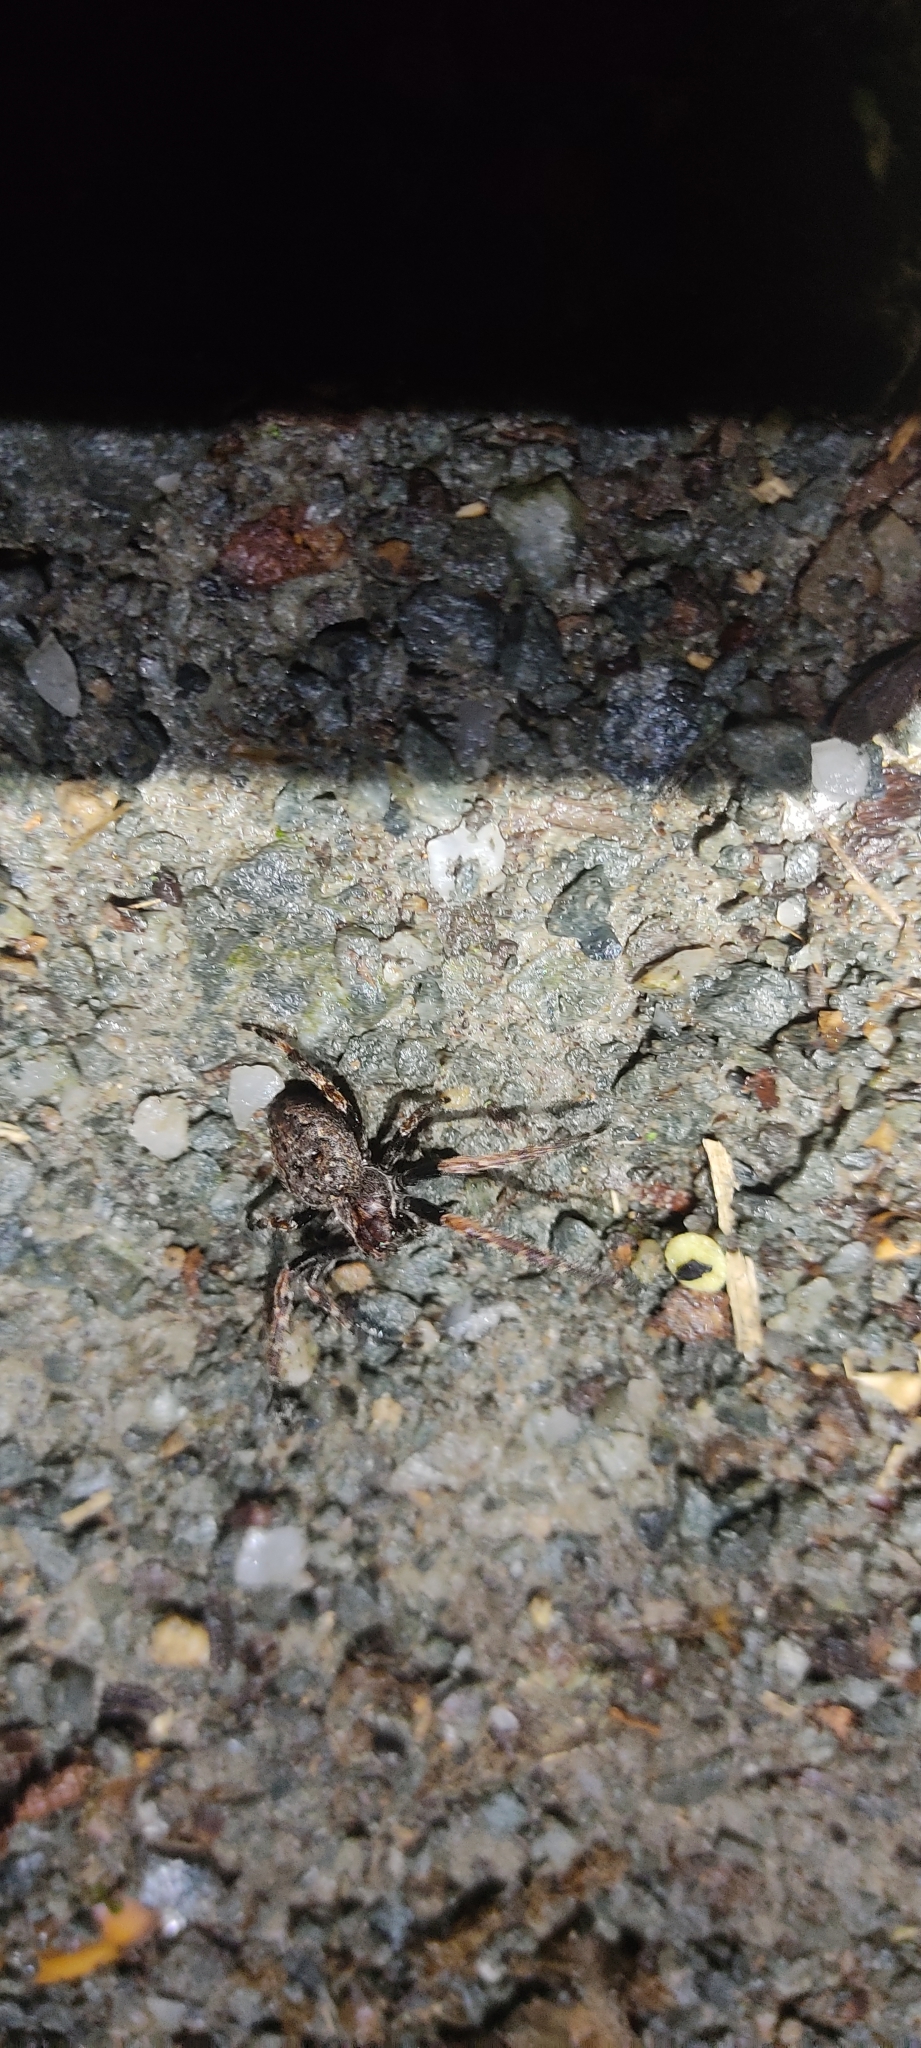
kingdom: Animalia
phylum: Arthropoda
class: Arachnida
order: Araneae
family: Araneidae
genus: Nuctenea
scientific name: Nuctenea umbratica
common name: Toad spider
